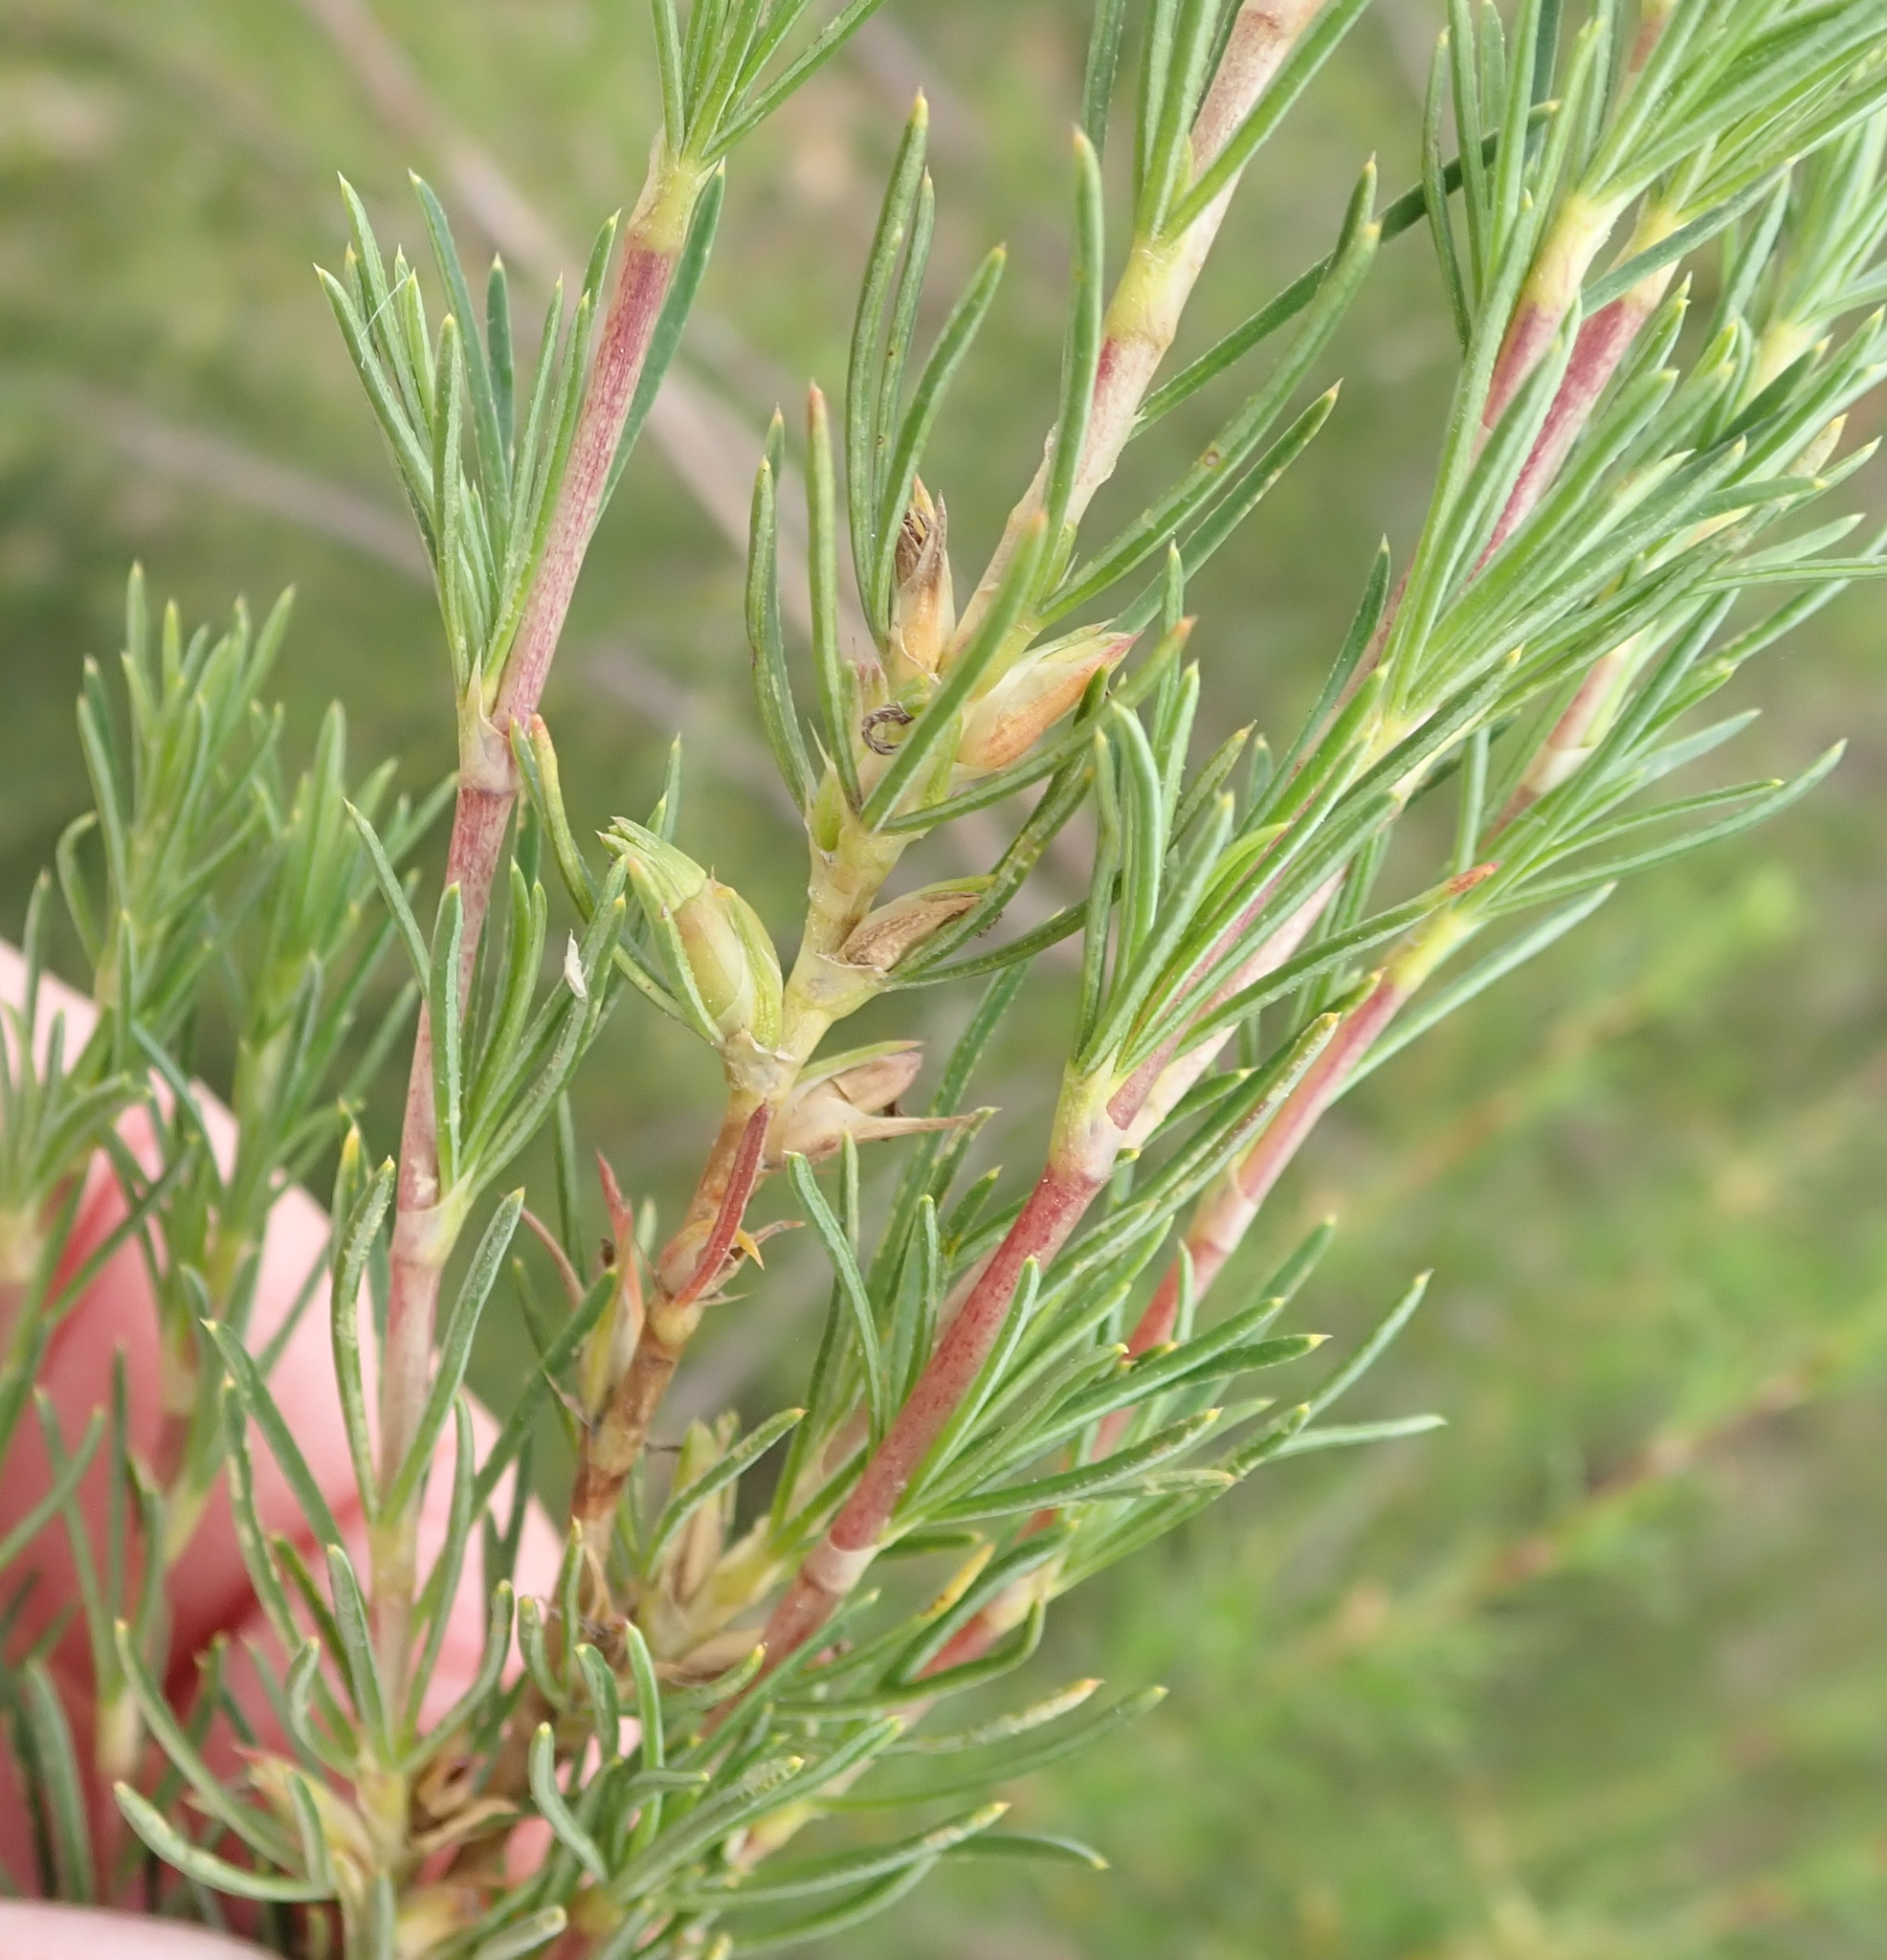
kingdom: Plantae
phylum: Tracheophyta
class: Magnoliopsida
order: Rosales
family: Rosaceae
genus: Cliffortia
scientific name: Cliffortia strobilifera
